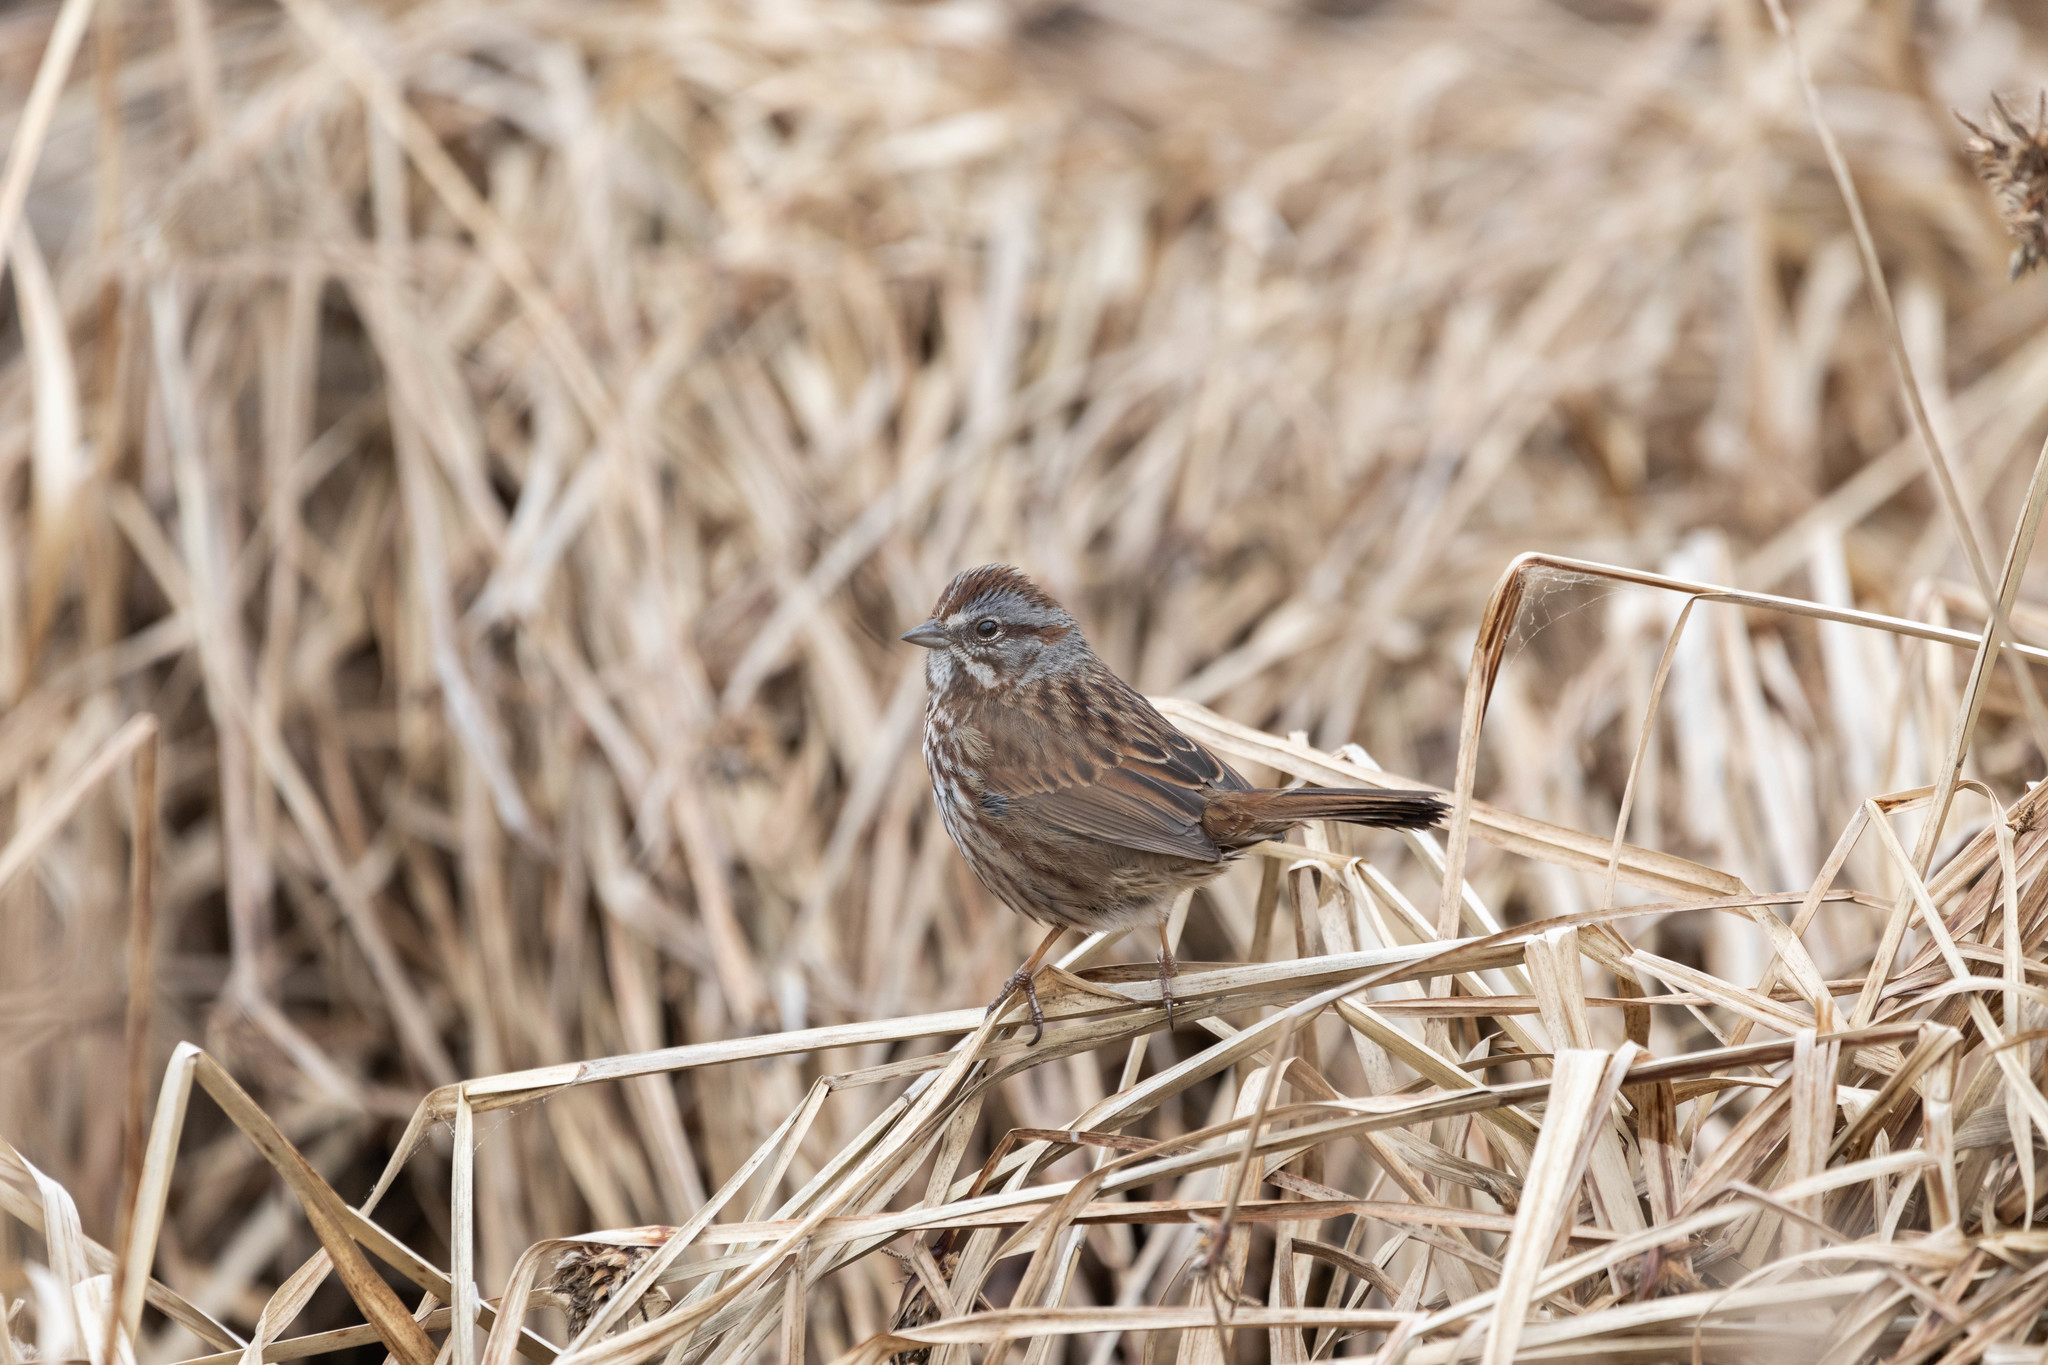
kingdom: Animalia
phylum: Chordata
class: Aves
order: Passeriformes
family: Passerellidae
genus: Melospiza
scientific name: Melospiza melodia
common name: Song sparrow
